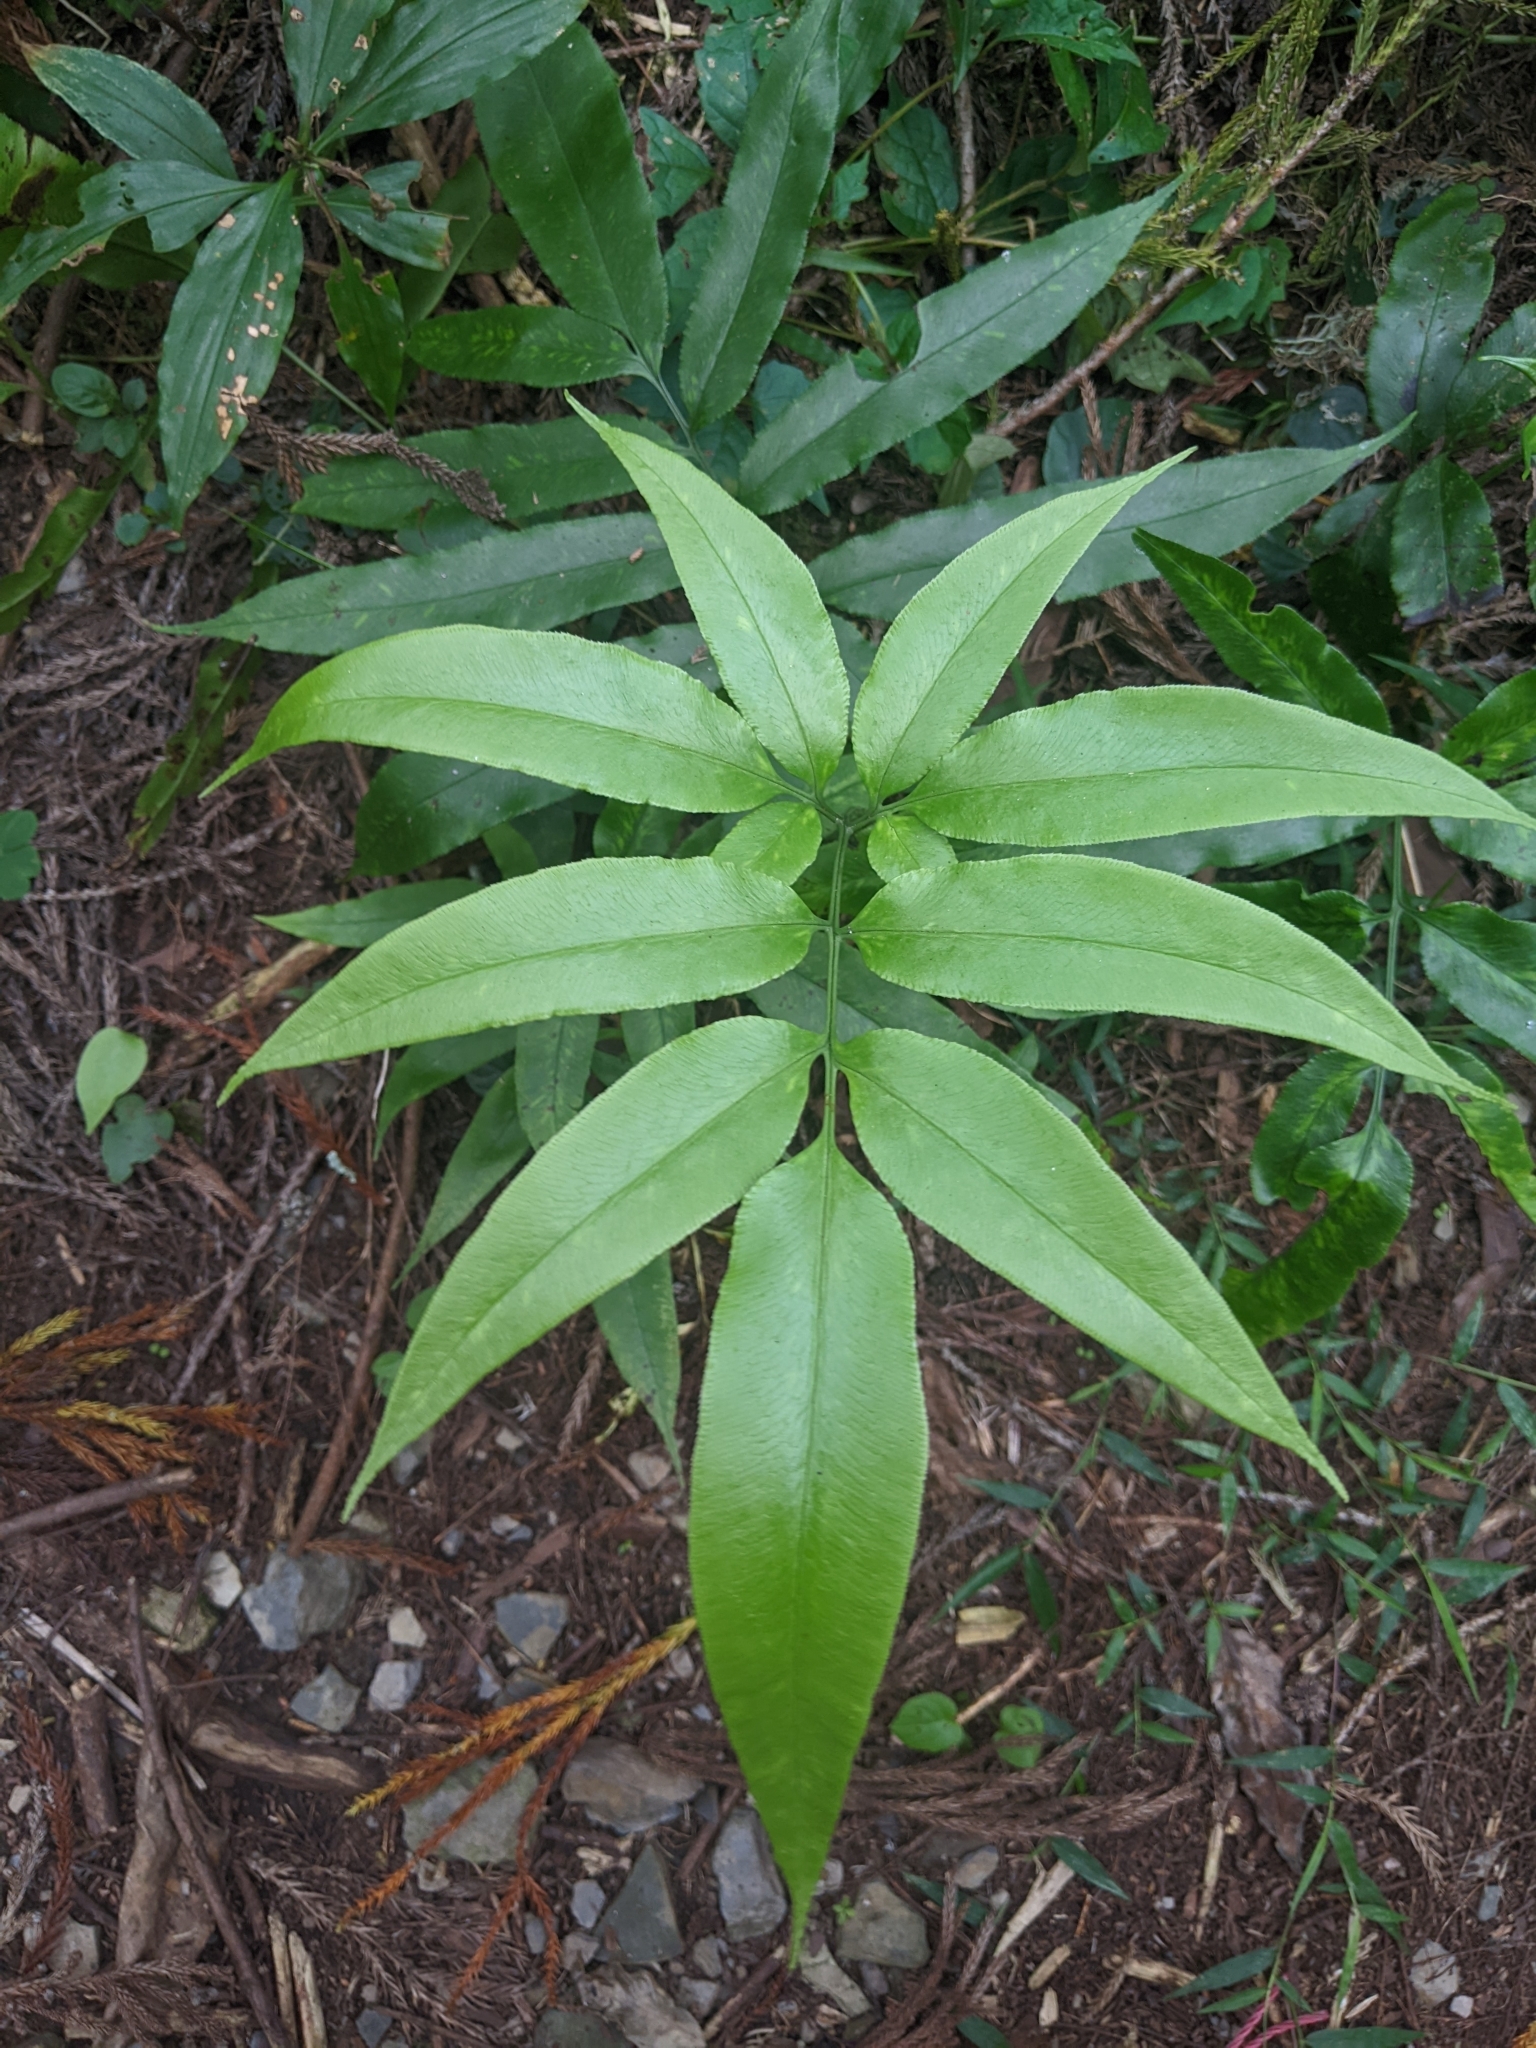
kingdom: Plantae
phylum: Tracheophyta
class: Polypodiopsida
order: Polypodiales
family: Pteridaceae
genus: Coniogramme
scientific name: Coniogramme japonica
